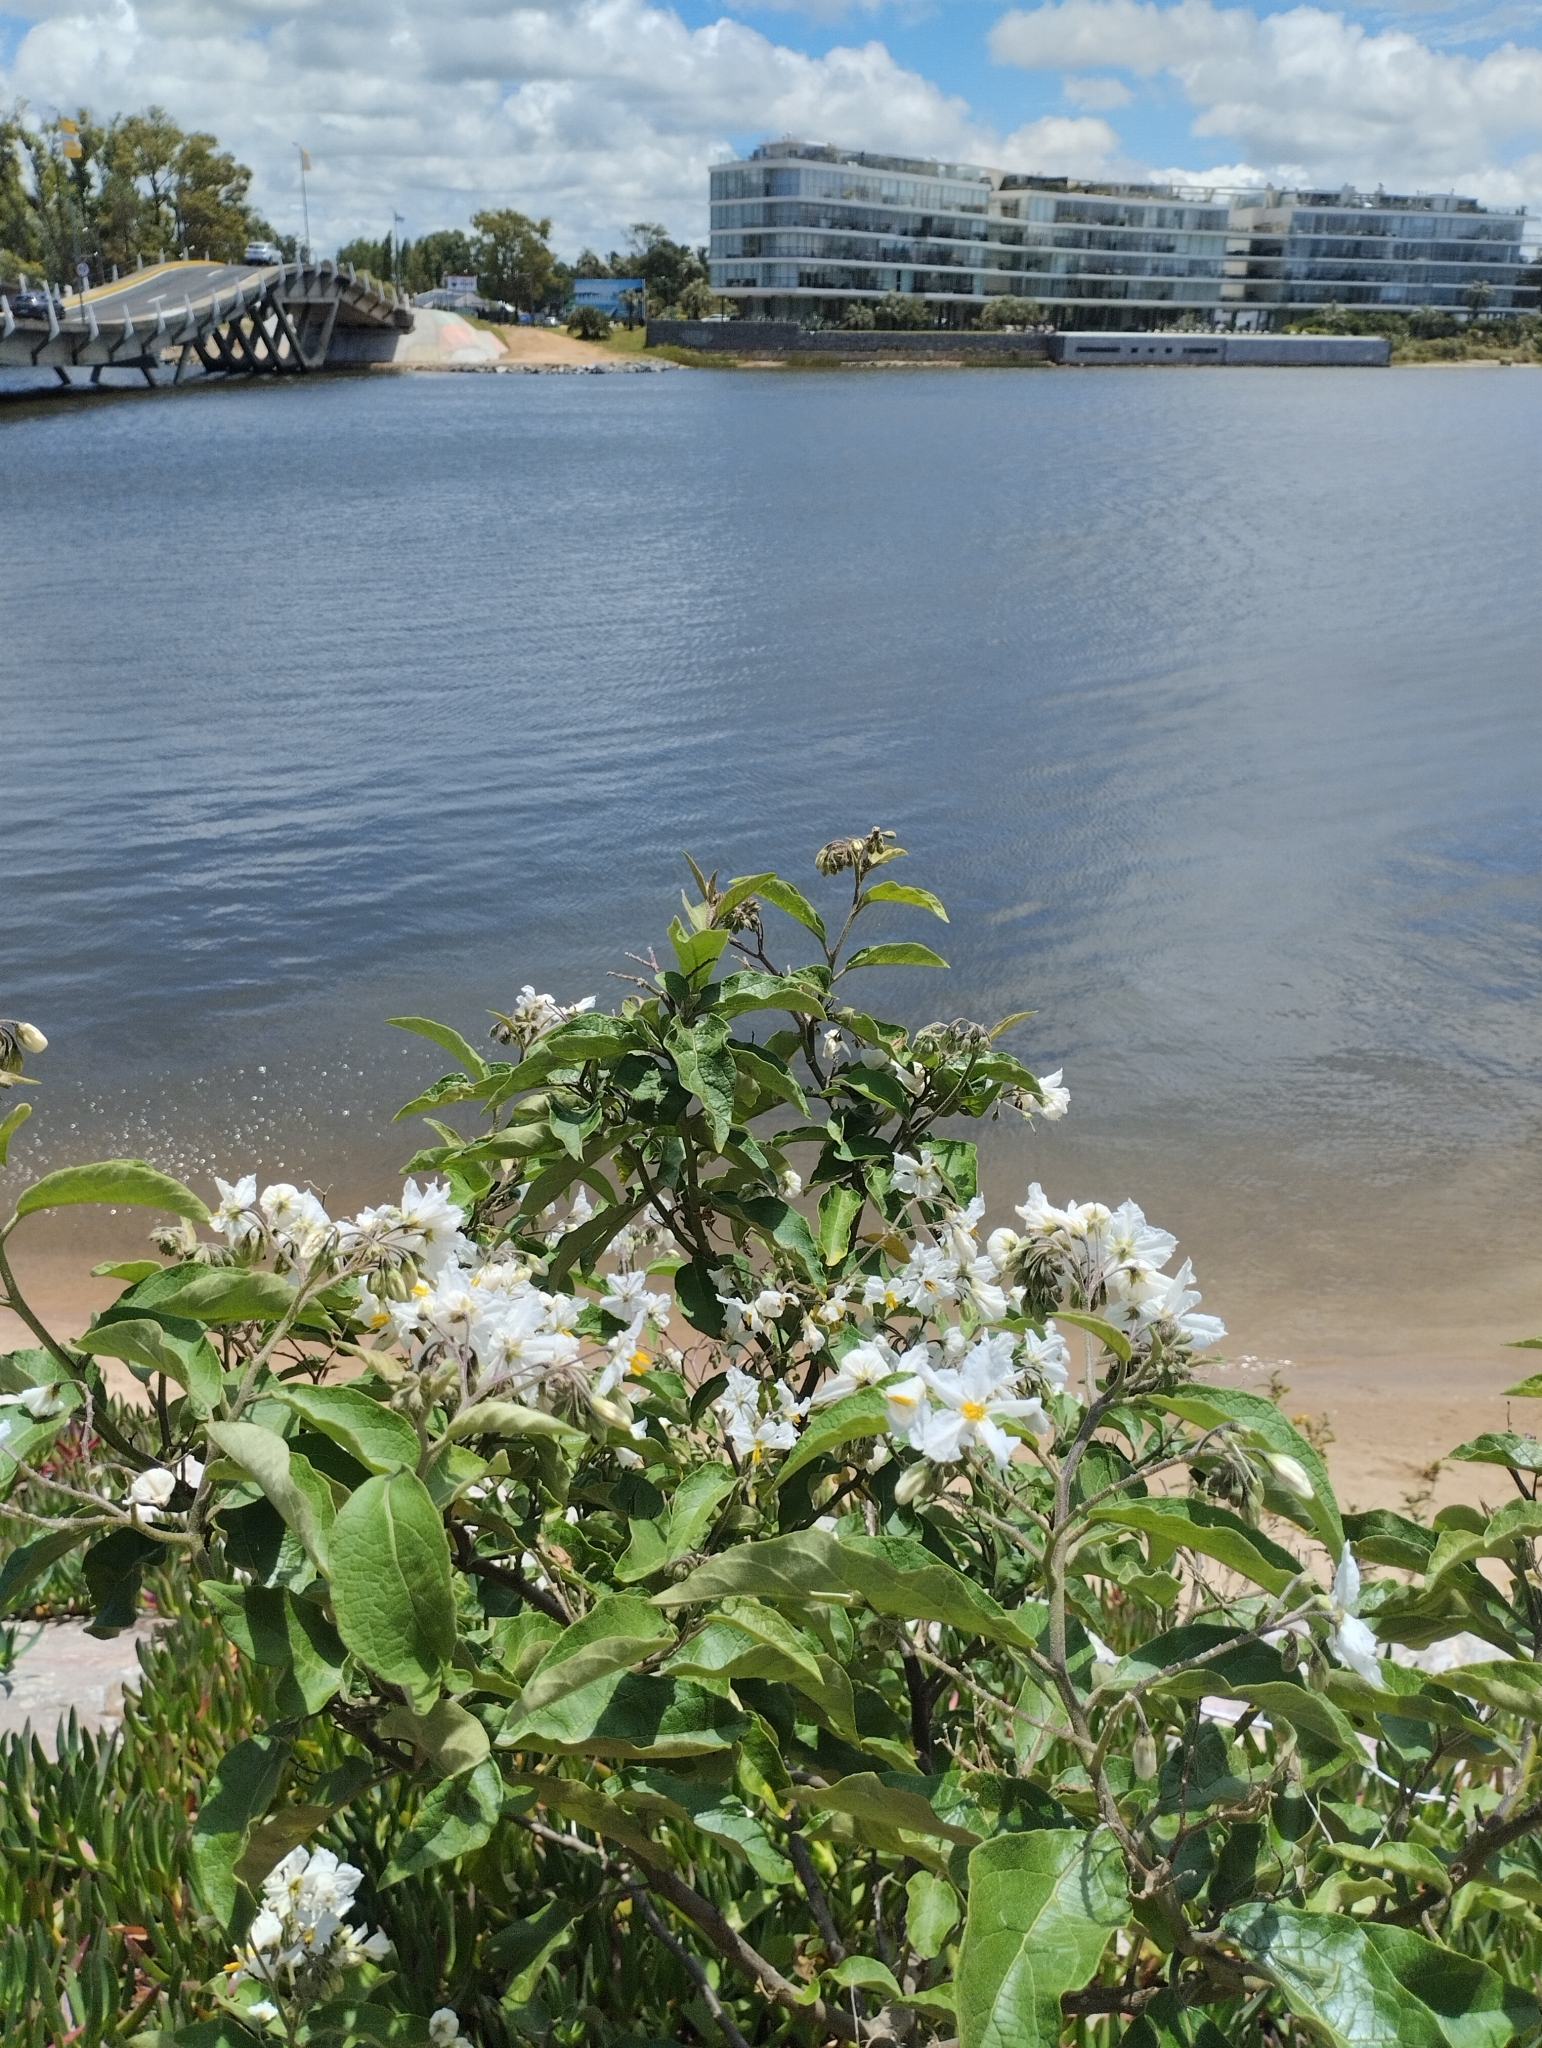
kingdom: Plantae
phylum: Tracheophyta
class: Magnoliopsida
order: Solanales
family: Solanaceae
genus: Solanum
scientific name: Solanum bonariense
